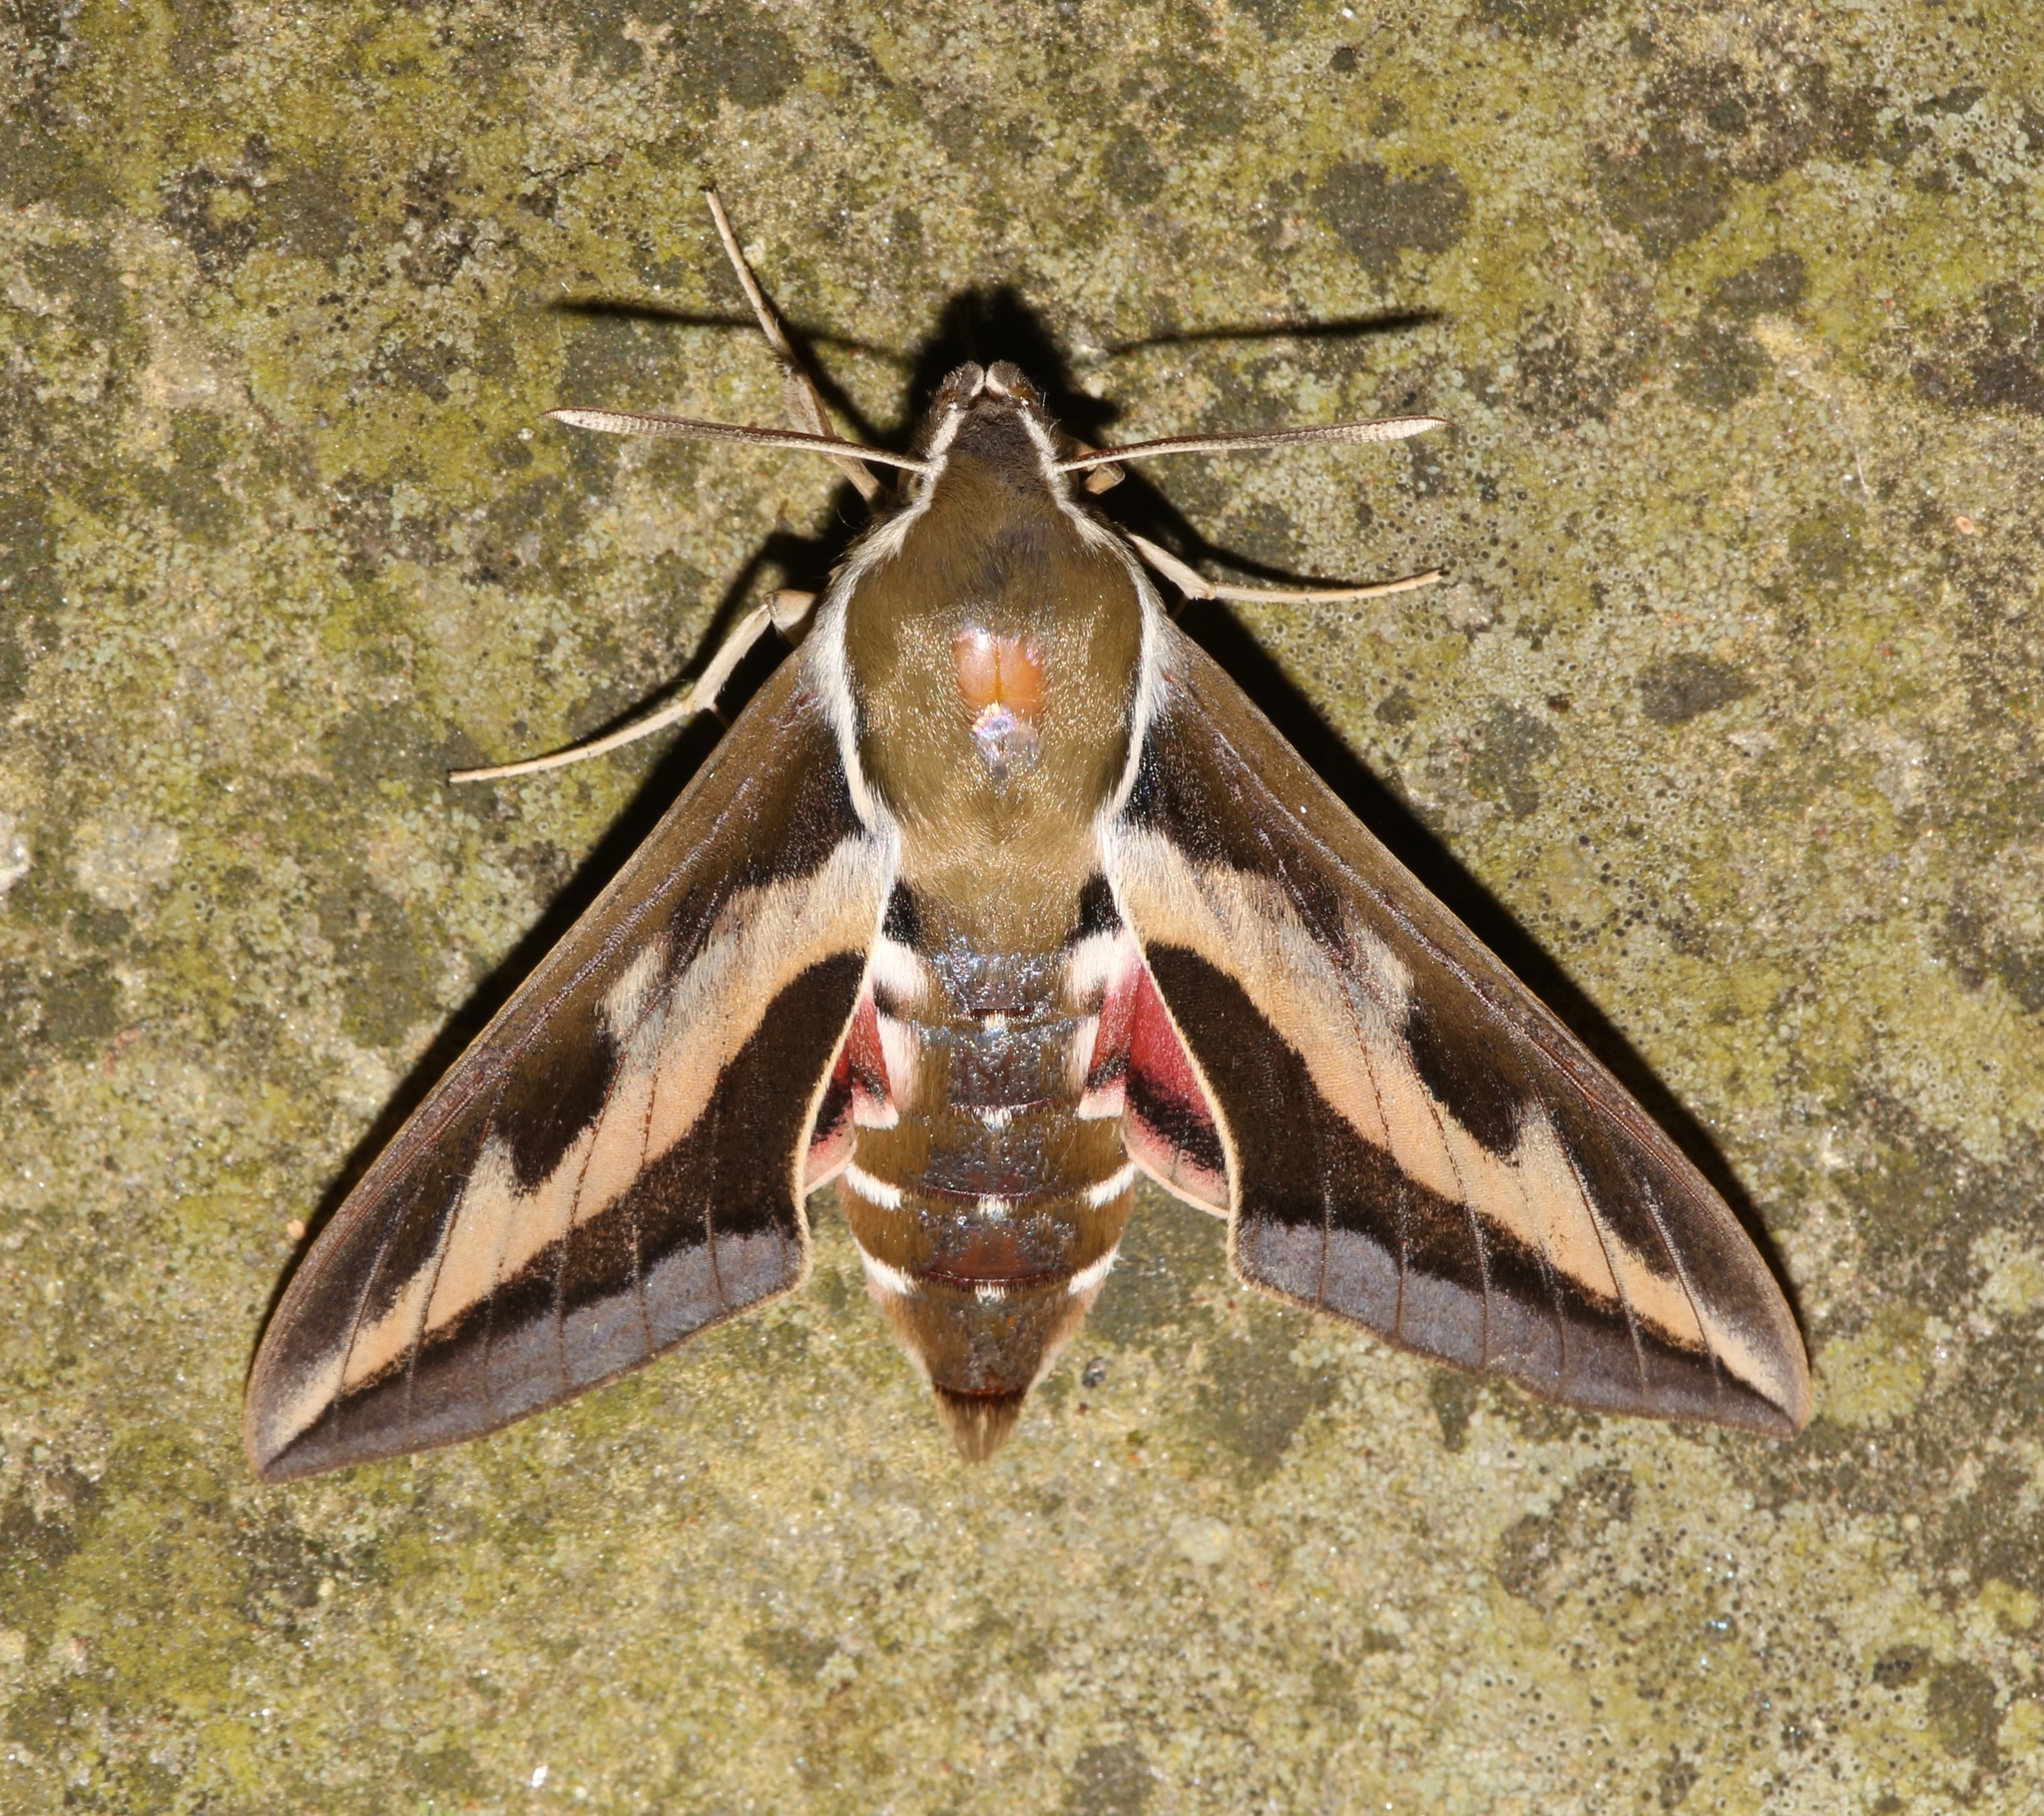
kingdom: Animalia
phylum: Arthropoda
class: Insecta
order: Lepidoptera
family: Sphingidae
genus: Hyles
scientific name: Hyles gallii
